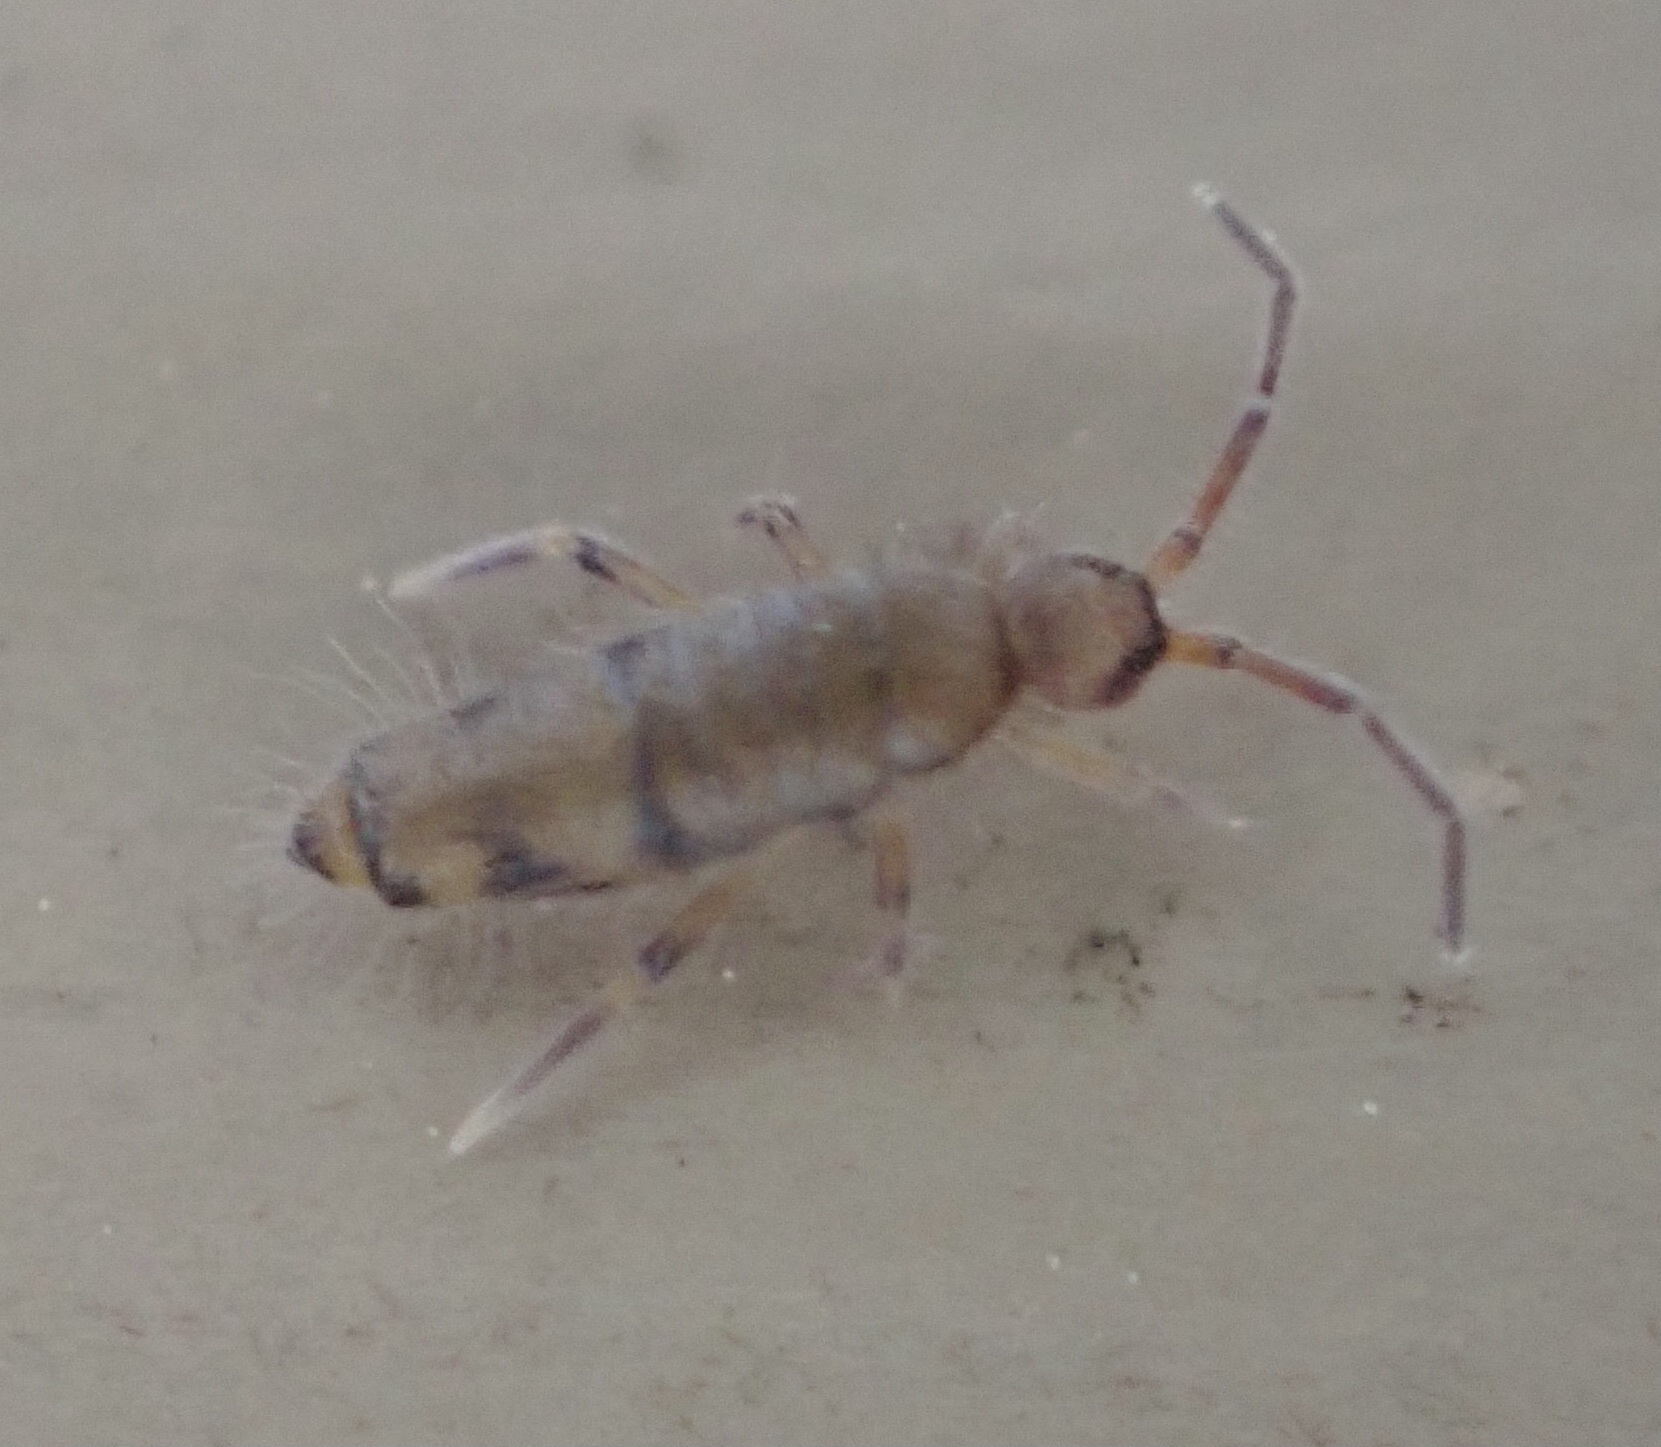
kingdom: Animalia
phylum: Arthropoda
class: Collembola
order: Entomobryomorpha
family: Entomobryidae
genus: Willowsia
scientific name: Willowsia nigromaculata
